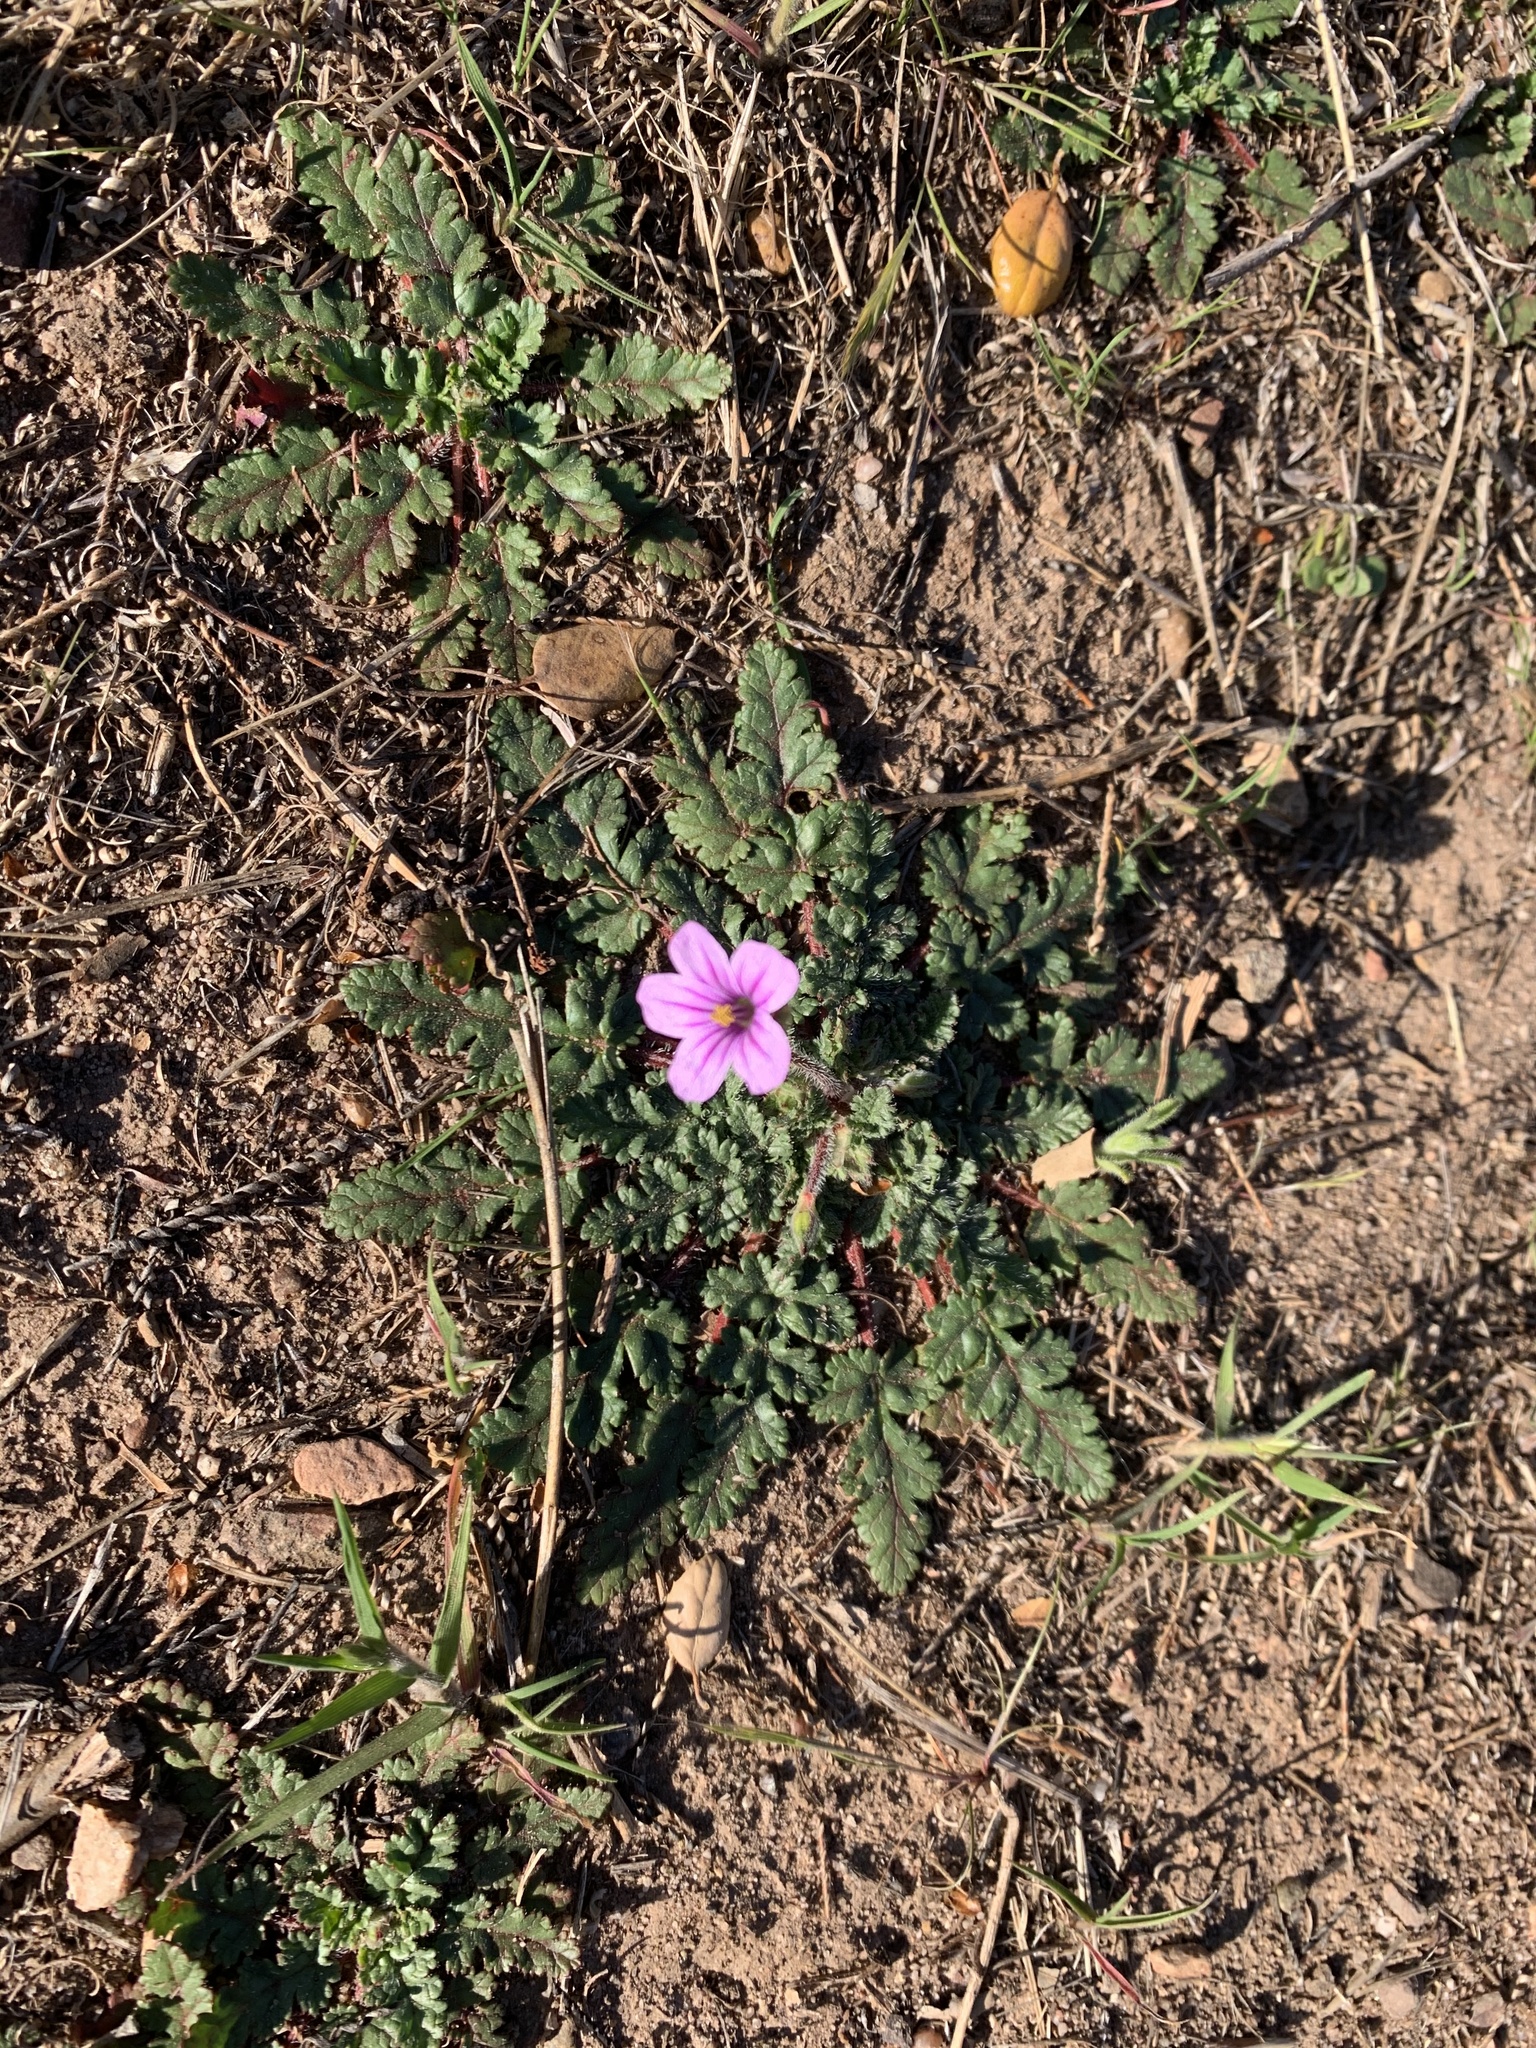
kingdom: Plantae
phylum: Tracheophyta
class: Magnoliopsida
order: Geraniales
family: Geraniaceae
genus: Erodium
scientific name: Erodium botrys
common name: Mediterranean stork's-bill
